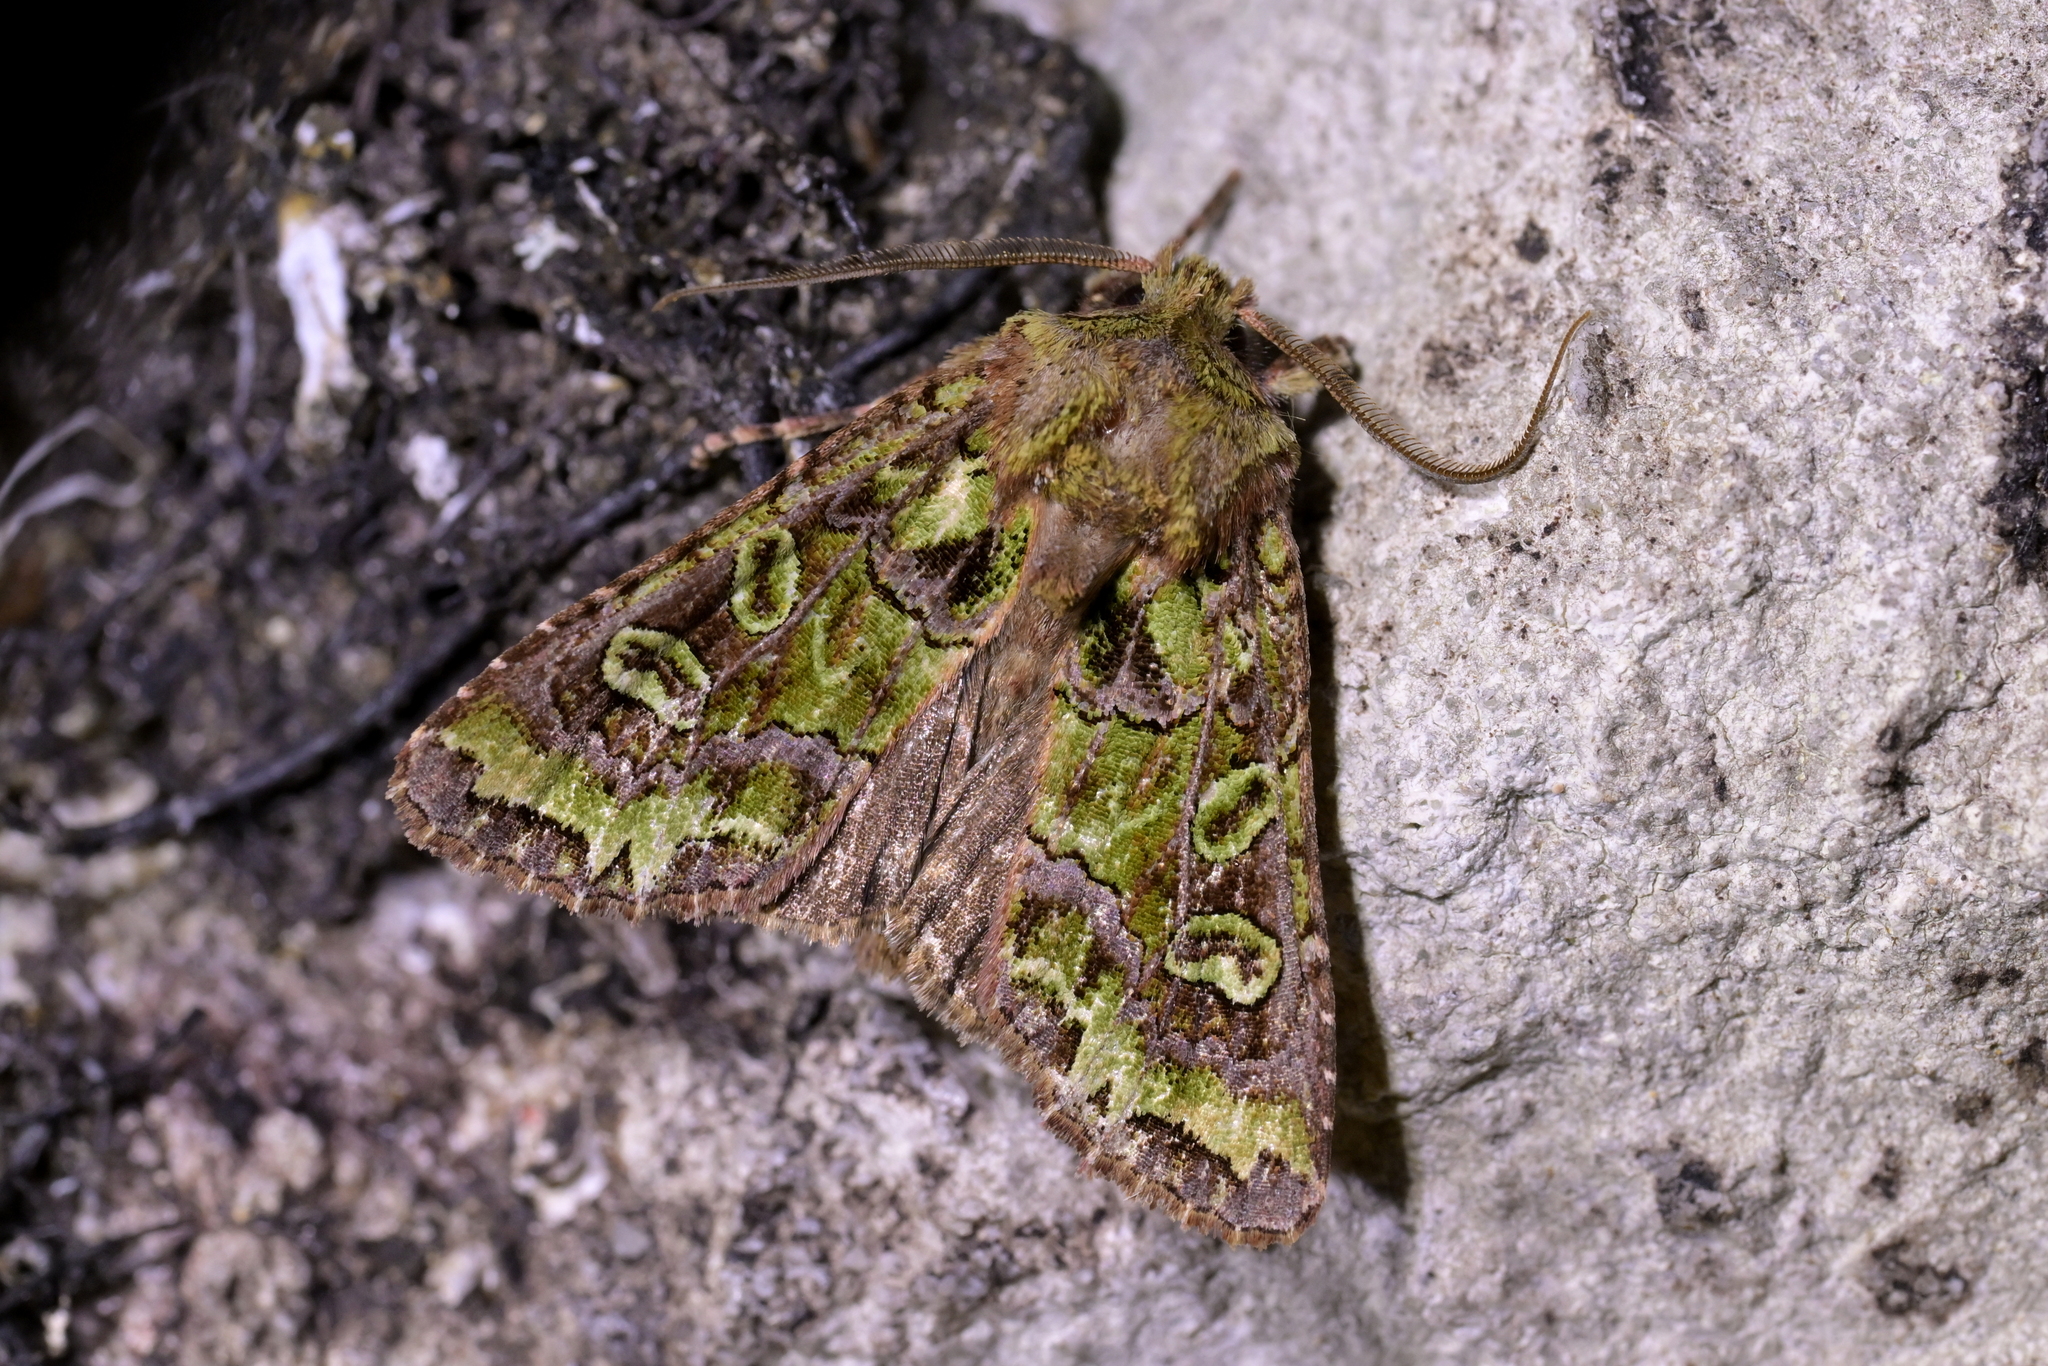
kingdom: Animalia
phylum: Arthropoda
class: Insecta
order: Lepidoptera
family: Noctuidae
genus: Ichneutica
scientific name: Ichneutica chlorodonta
